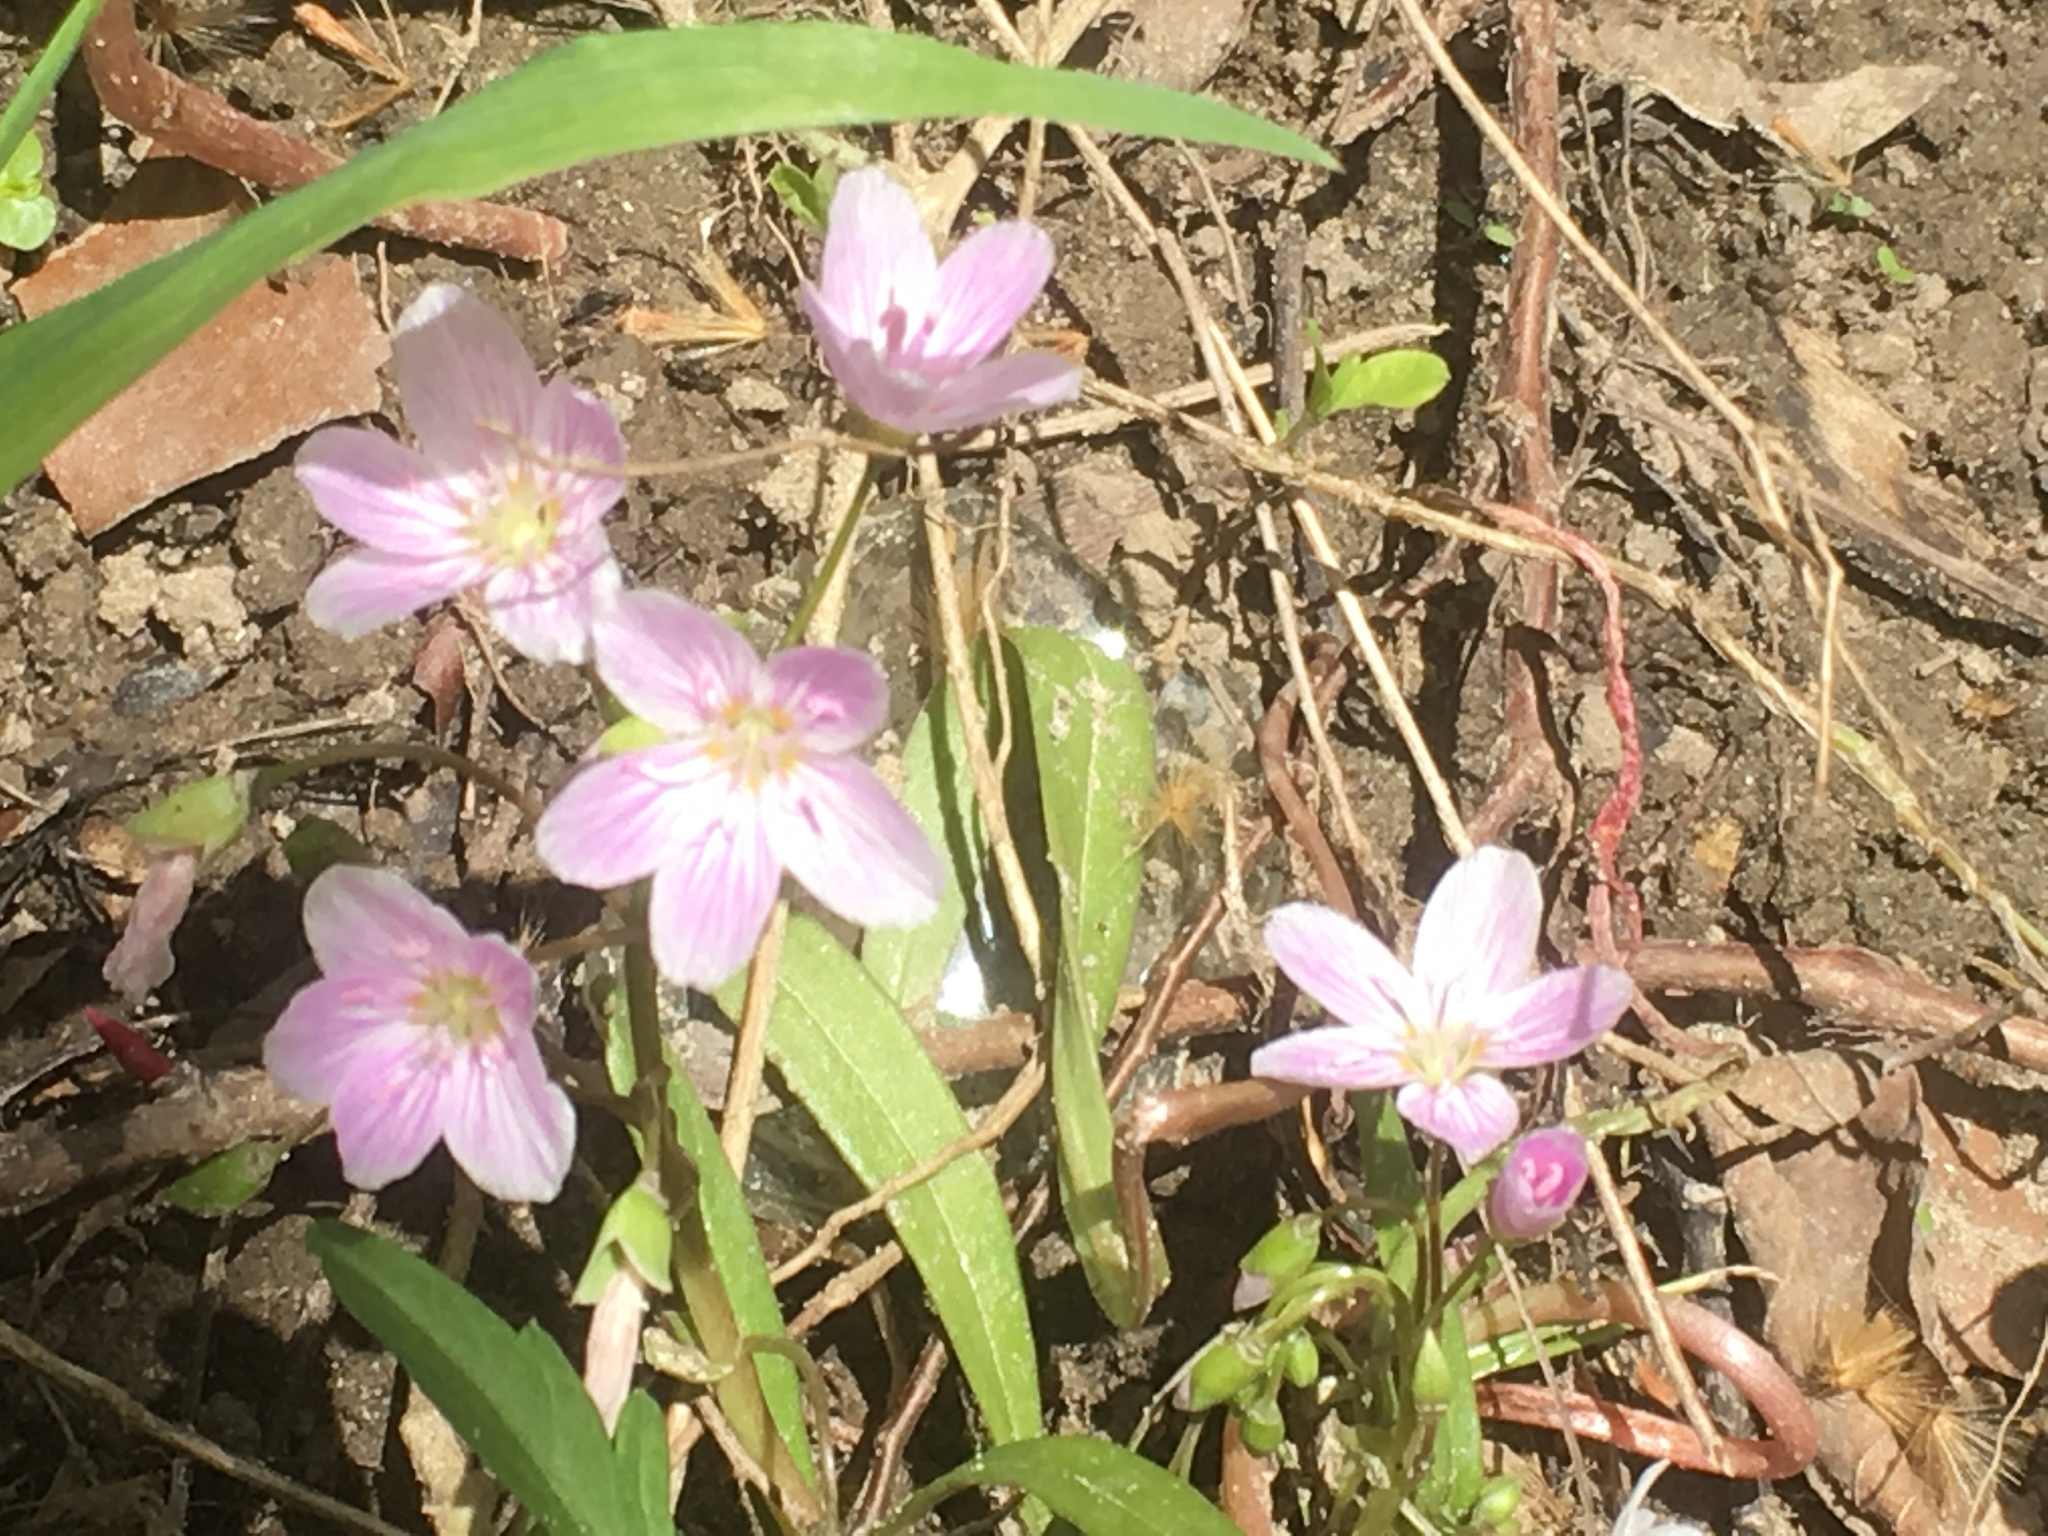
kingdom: Plantae
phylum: Tracheophyta
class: Magnoliopsida
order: Caryophyllales
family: Montiaceae
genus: Claytonia
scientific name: Claytonia virginica
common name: Virginia springbeauty
